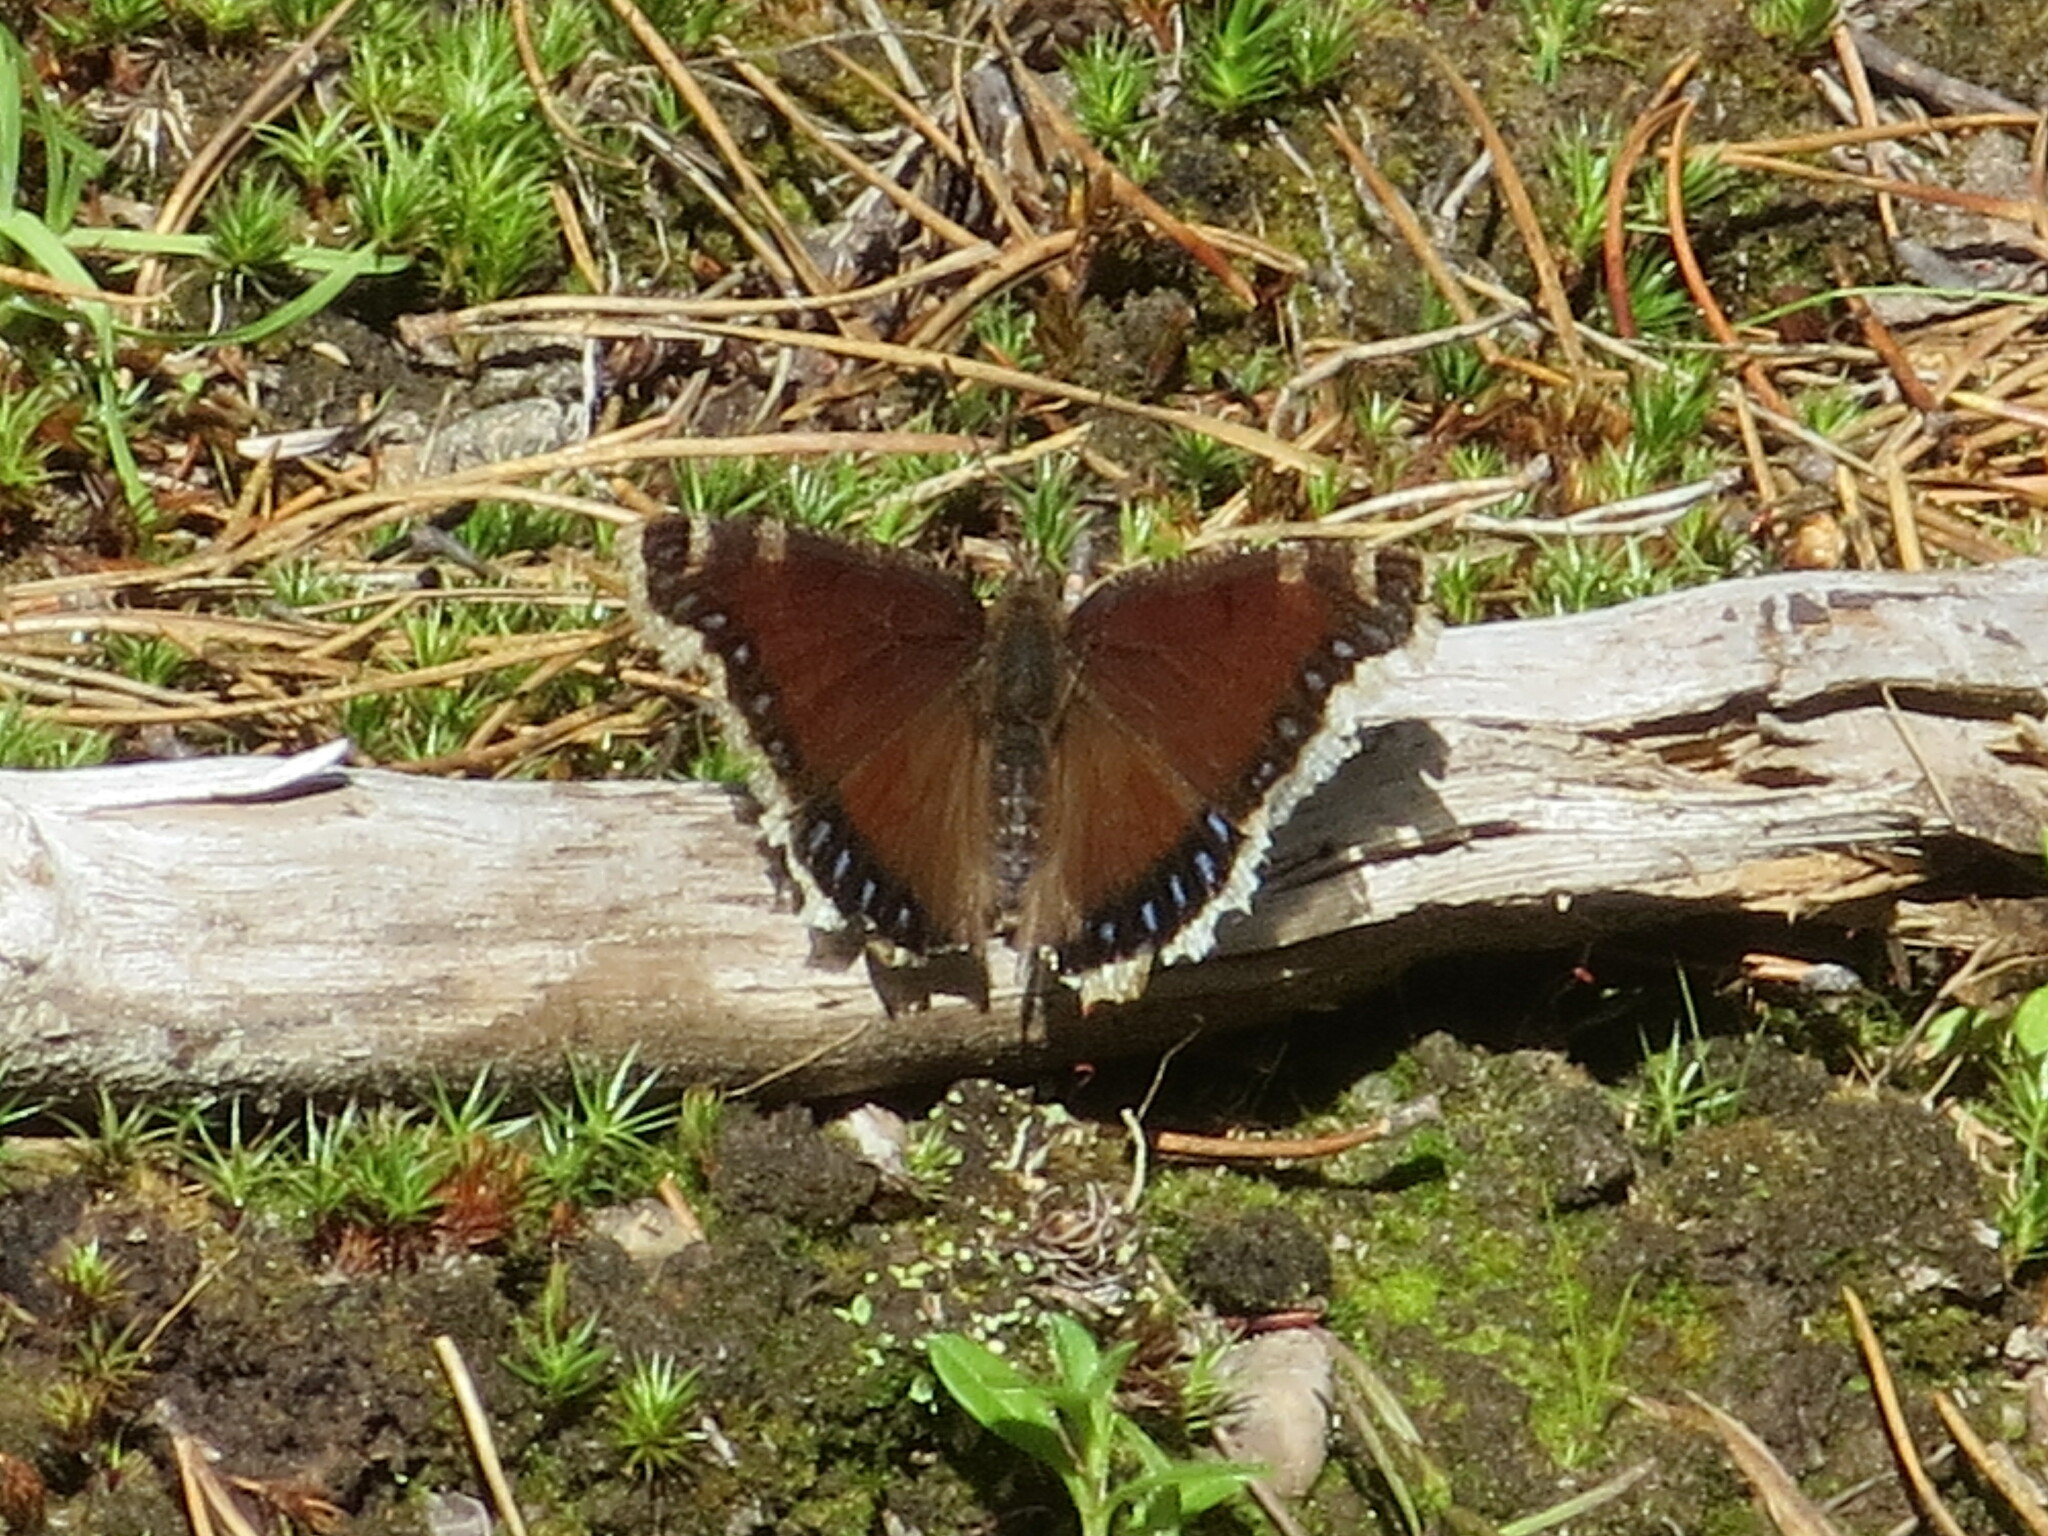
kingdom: Animalia
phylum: Arthropoda
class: Insecta
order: Lepidoptera
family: Nymphalidae
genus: Nymphalis
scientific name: Nymphalis antiopa
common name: Camberwell beauty
